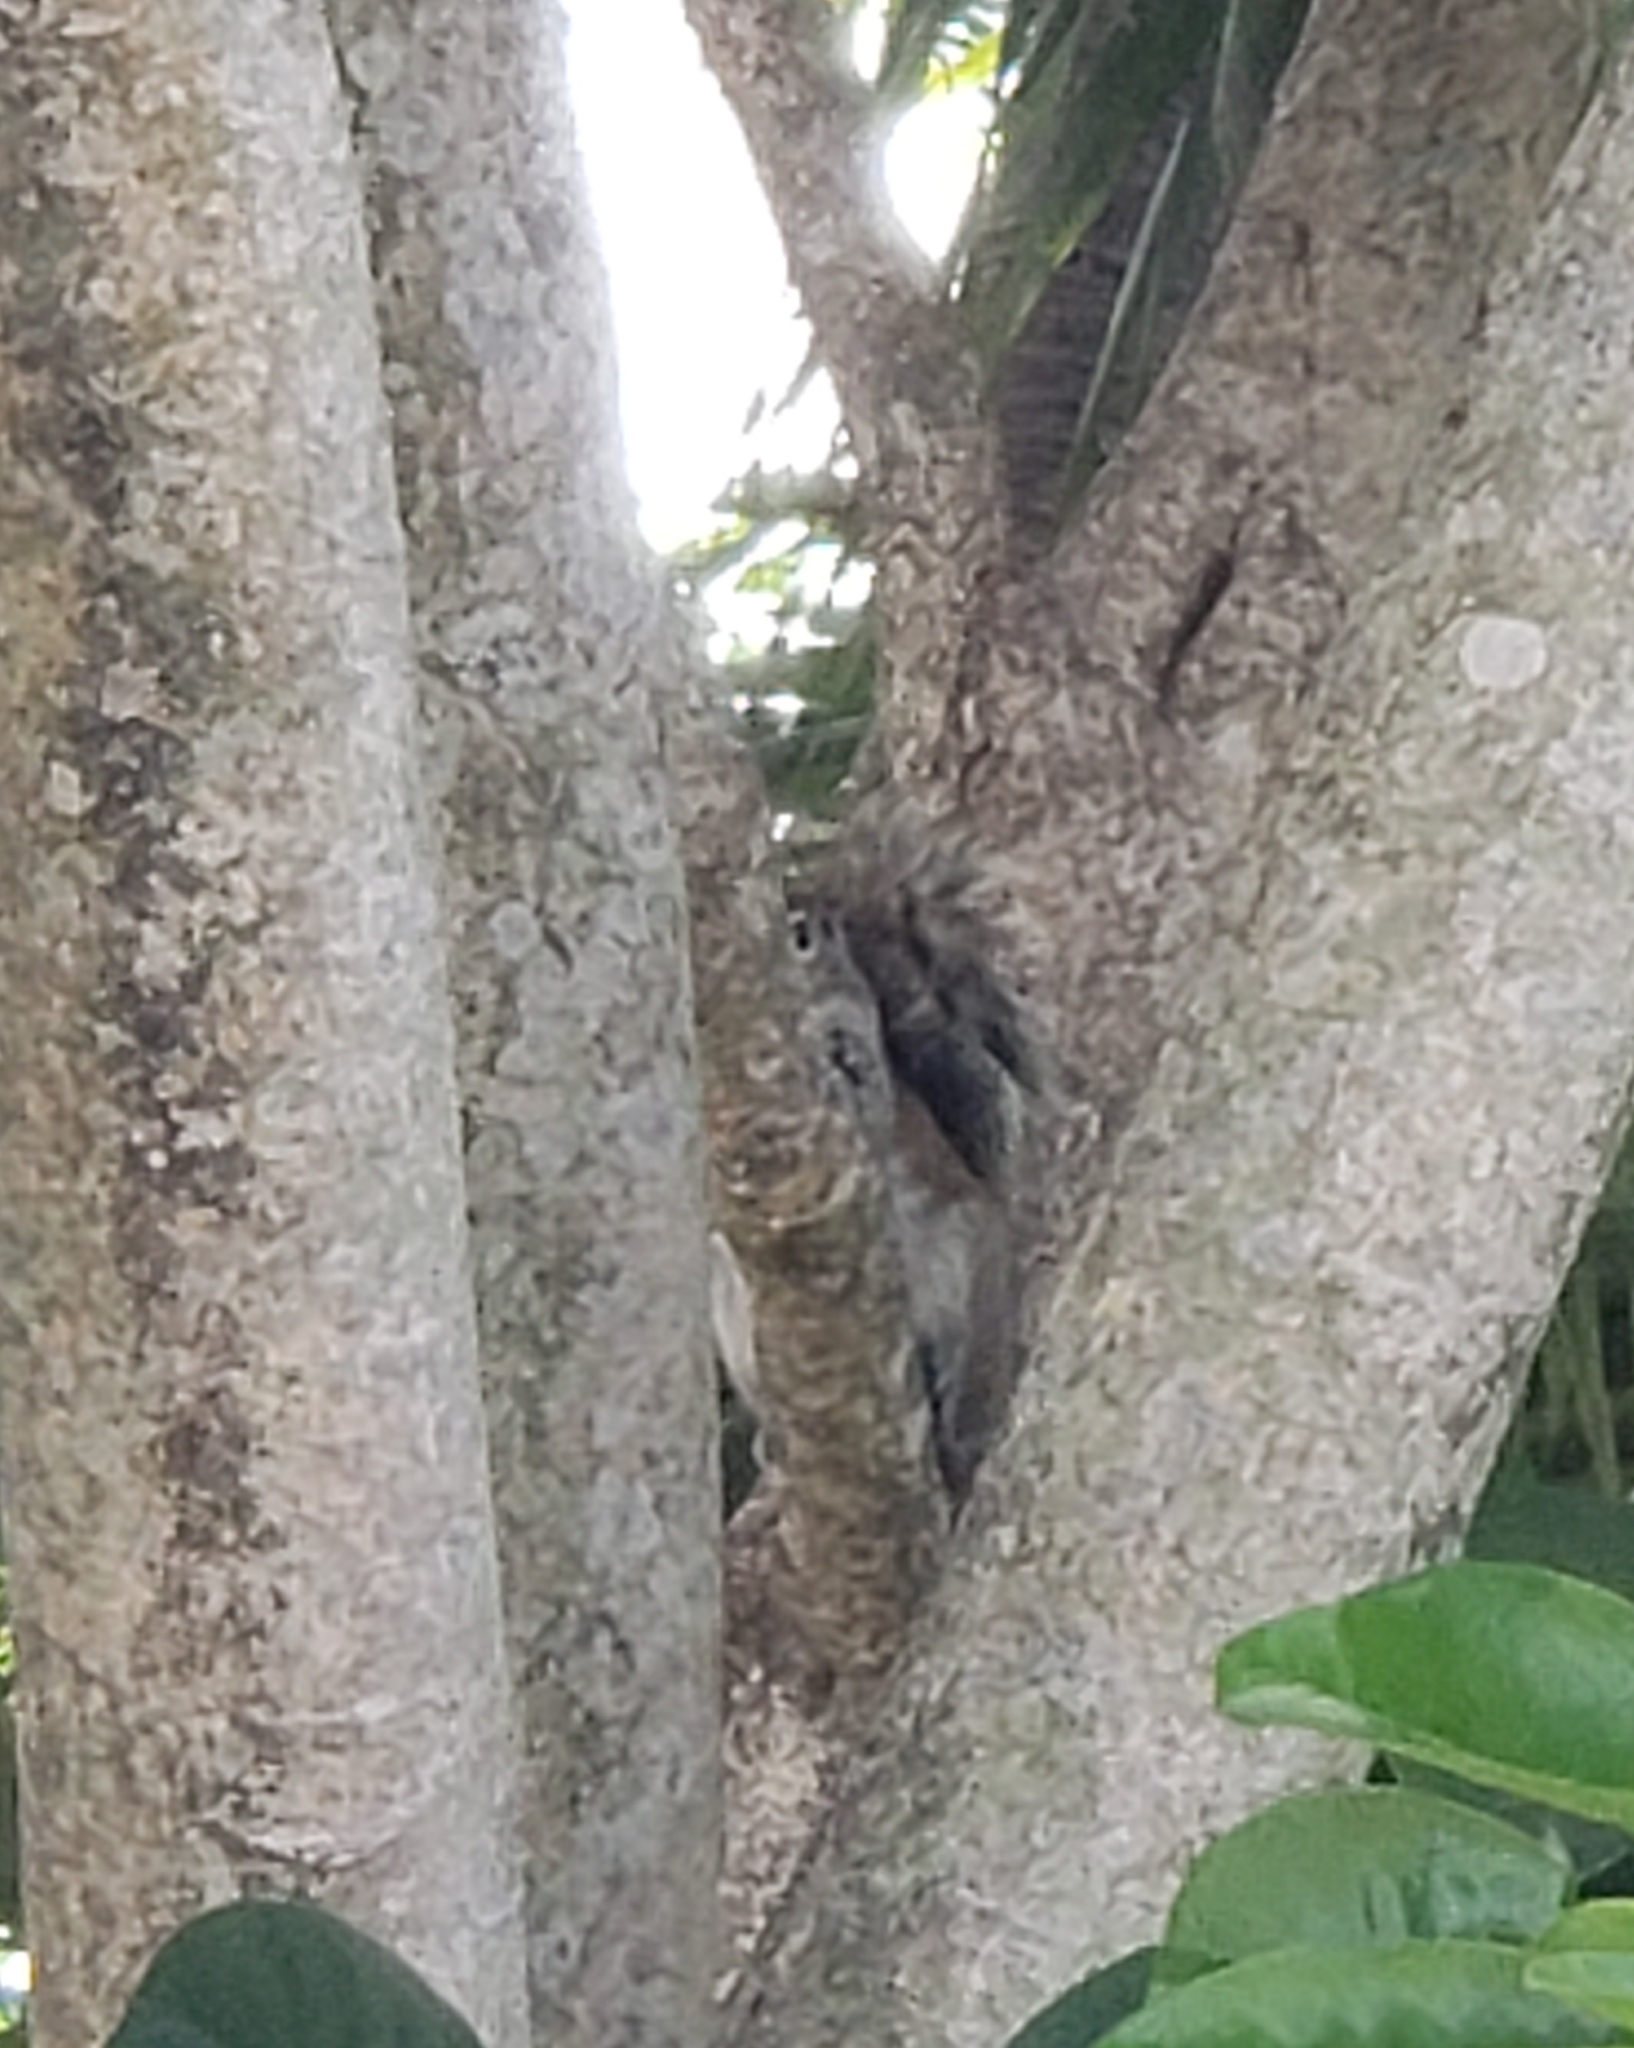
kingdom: Animalia
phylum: Chordata
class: Mammalia
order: Rodentia
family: Sciuridae
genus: Sciurus
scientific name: Sciurus carolinensis
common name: Eastern gray squirrel
